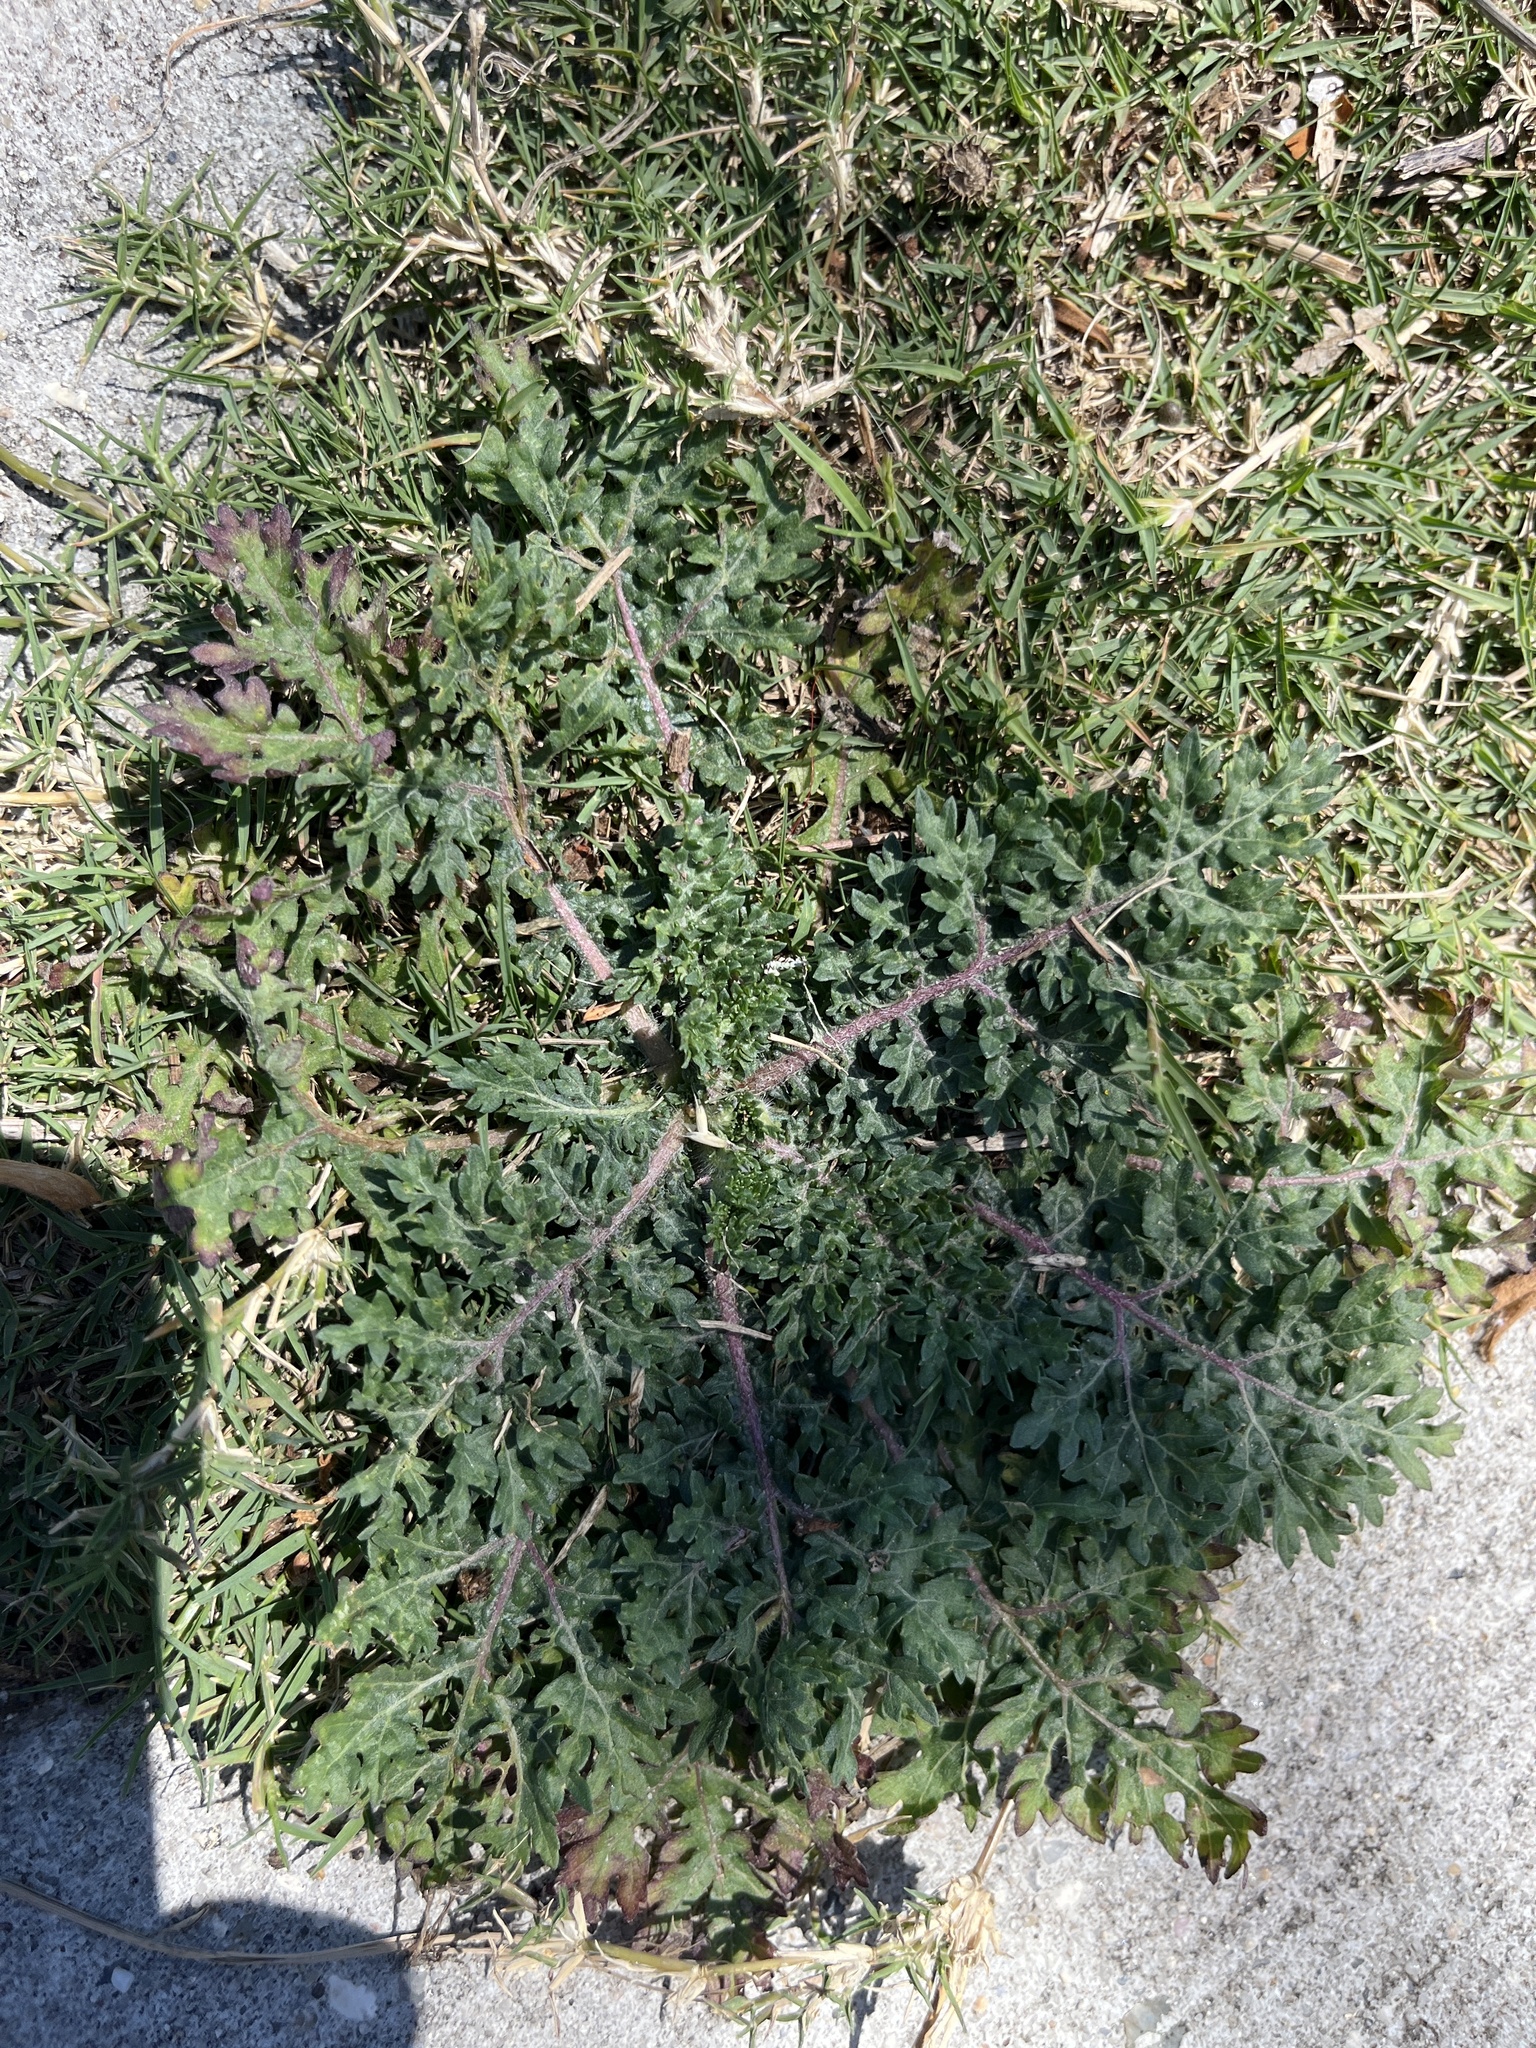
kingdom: Plantae
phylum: Tracheophyta
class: Magnoliopsida
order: Asterales
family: Asteraceae
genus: Parthenium
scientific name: Parthenium hysterophorus
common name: Santa maria feverfew
